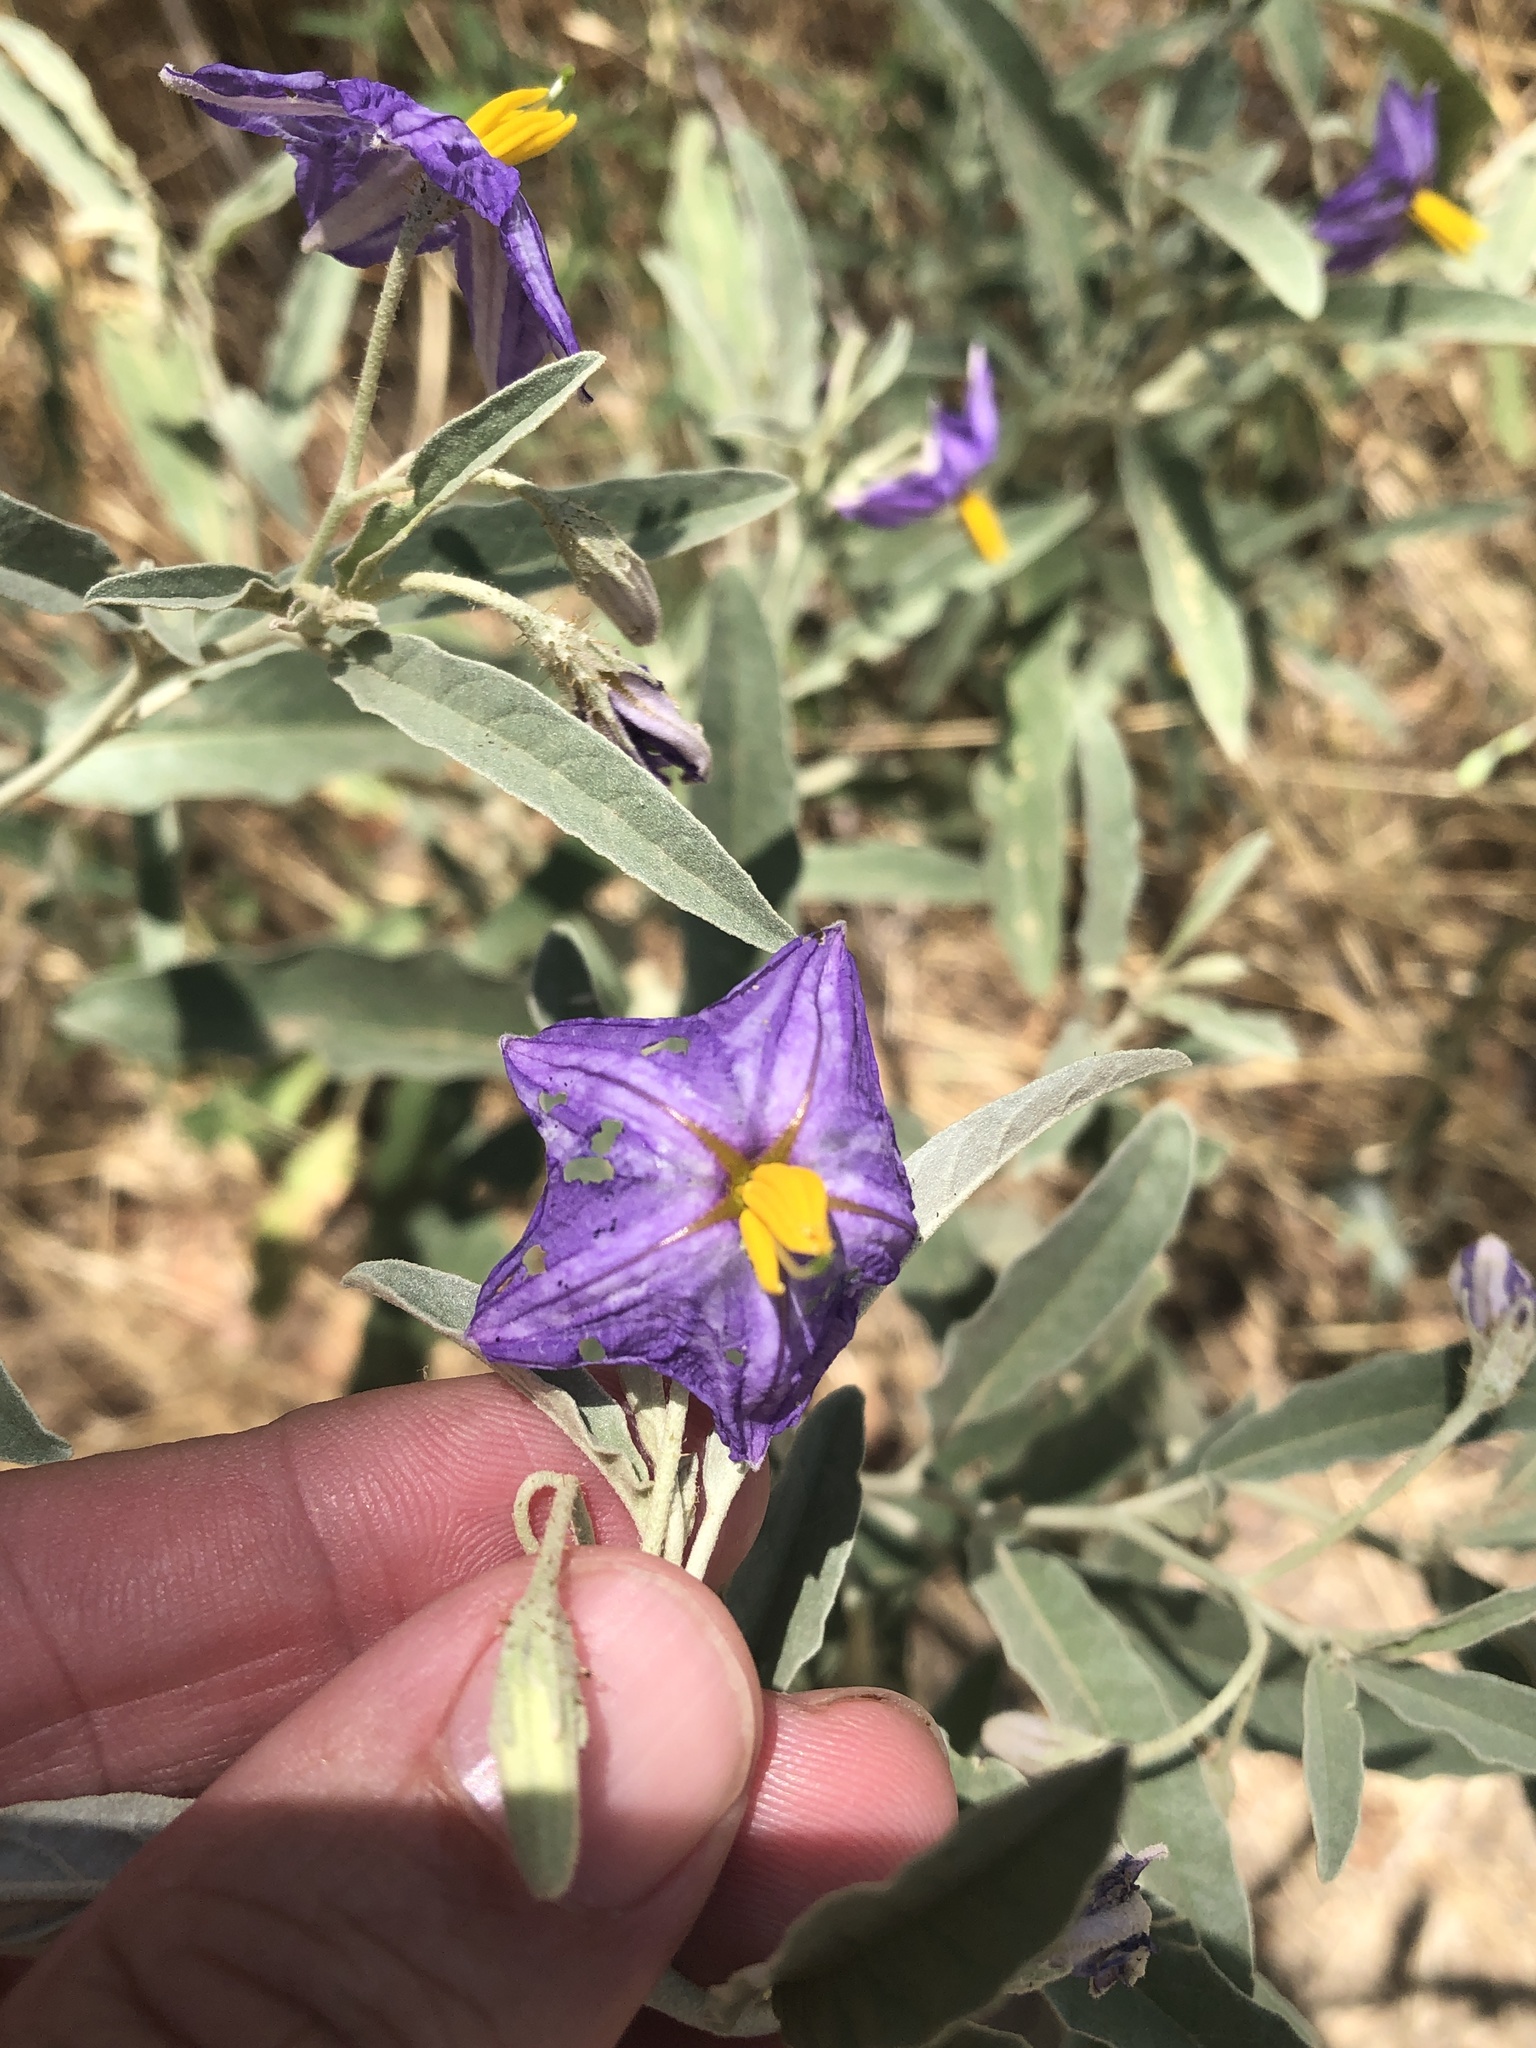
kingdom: Plantae
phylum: Tracheophyta
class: Magnoliopsida
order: Solanales
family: Solanaceae
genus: Solanum
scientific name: Solanum elaeagnifolium
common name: Silverleaf nightshade
